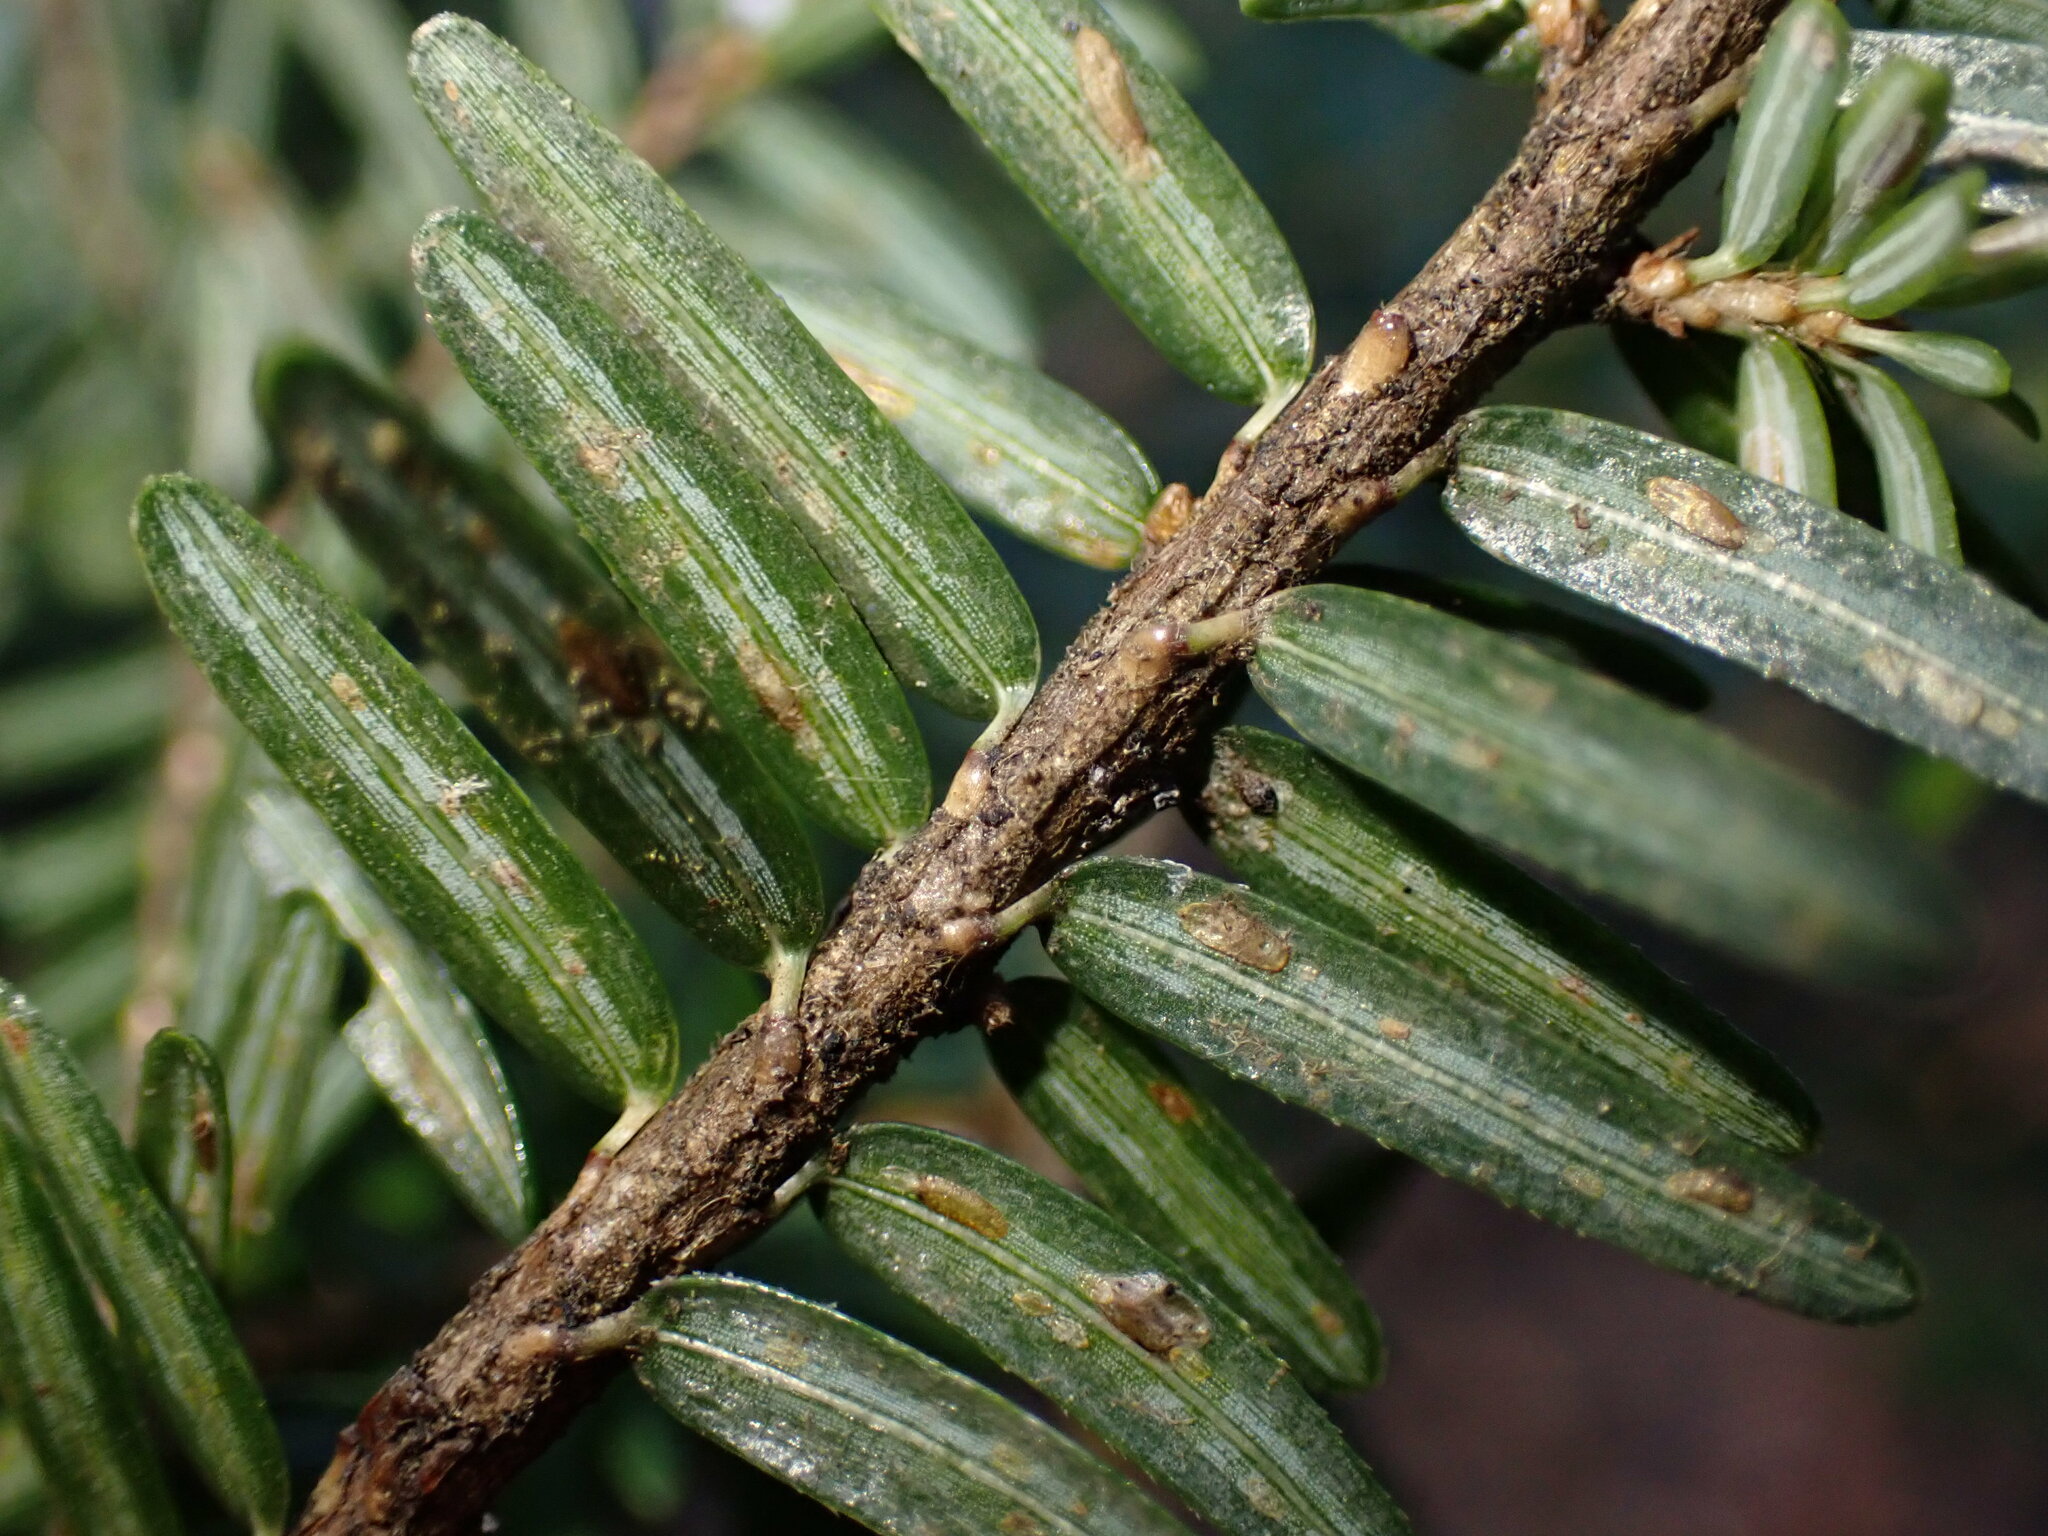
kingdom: Animalia
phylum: Arthropoda
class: Insecta
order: Hemiptera
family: Diaspididae
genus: Fiorinia
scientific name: Fiorinia externa
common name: Elongate hemlock scale
